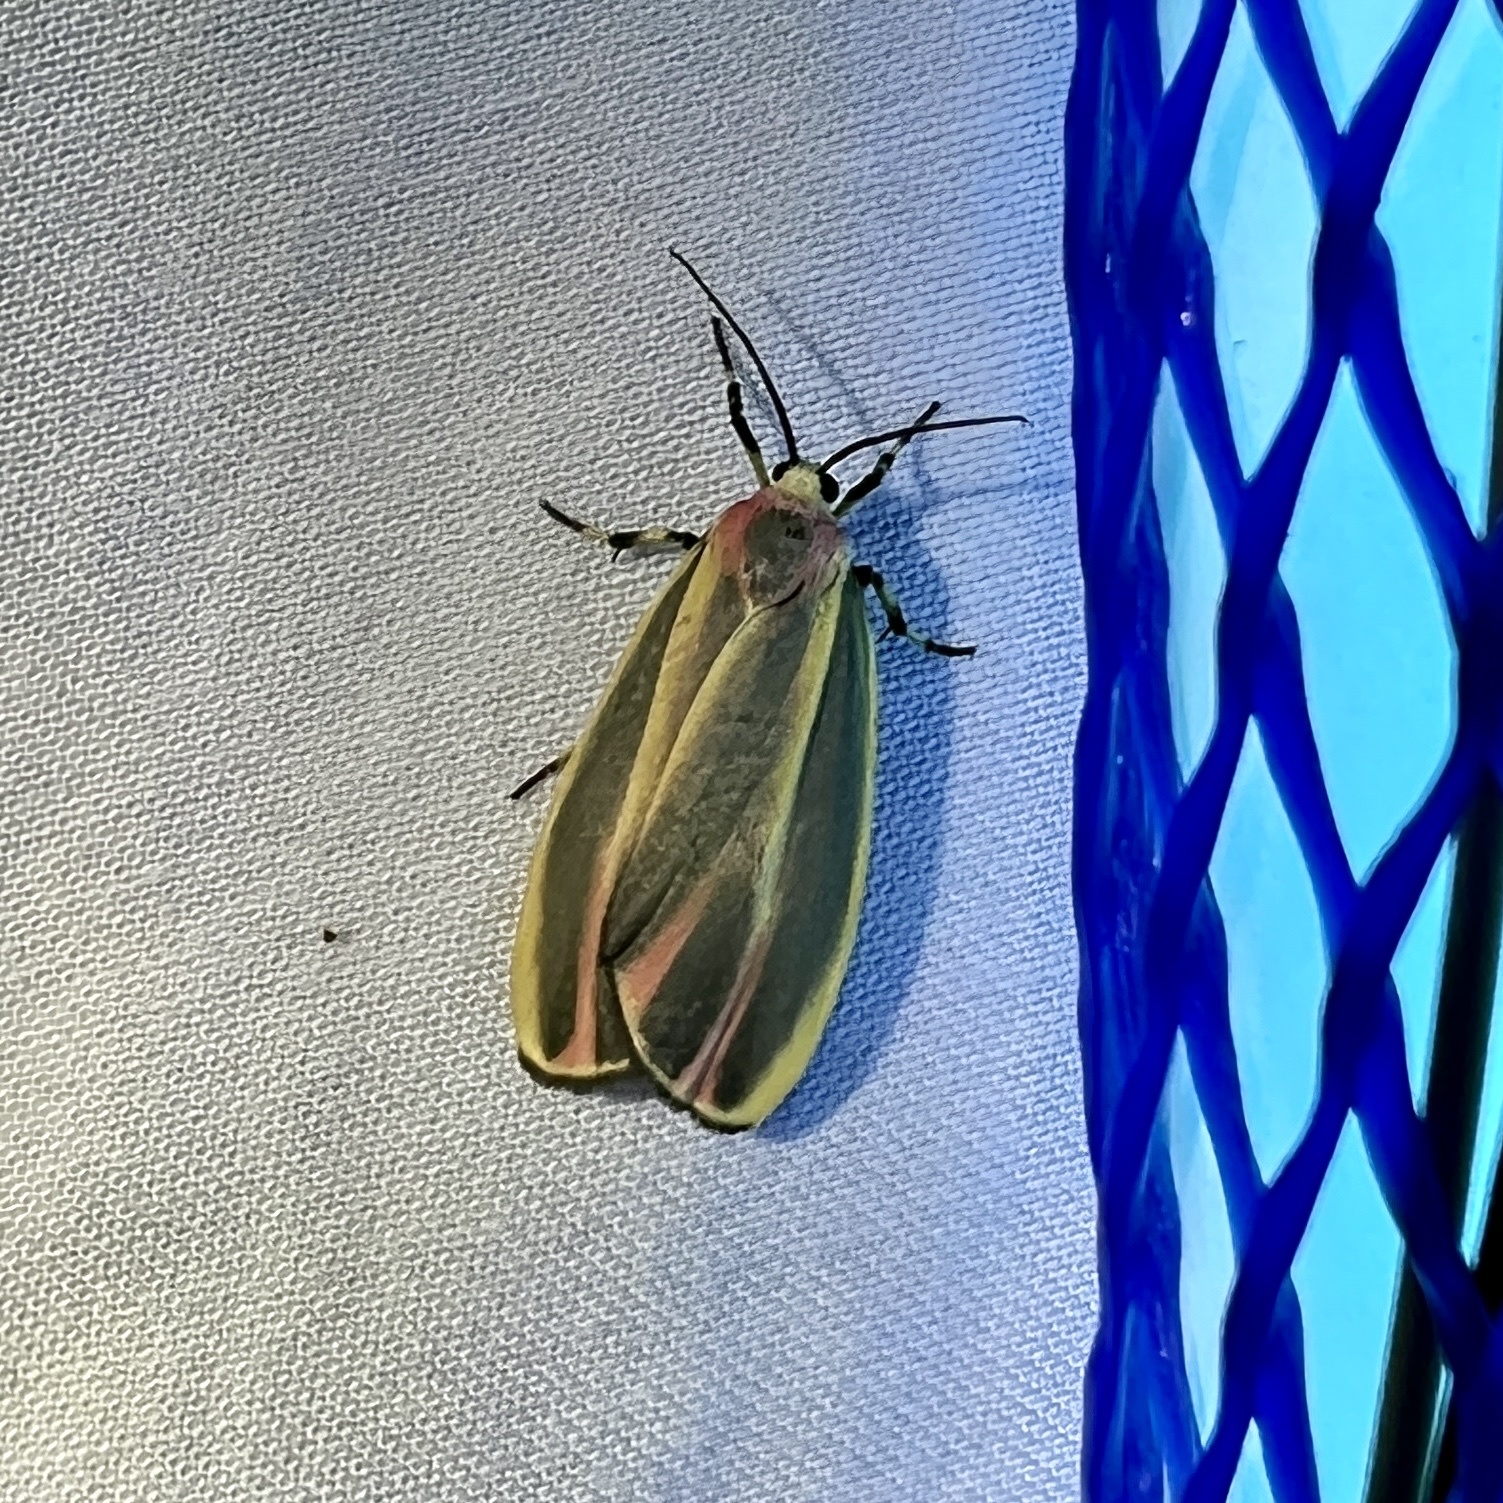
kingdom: Animalia
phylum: Arthropoda
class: Insecta
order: Lepidoptera
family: Erebidae
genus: Hypoprepia
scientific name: Hypoprepia fucosa
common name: Painted lichen moth
